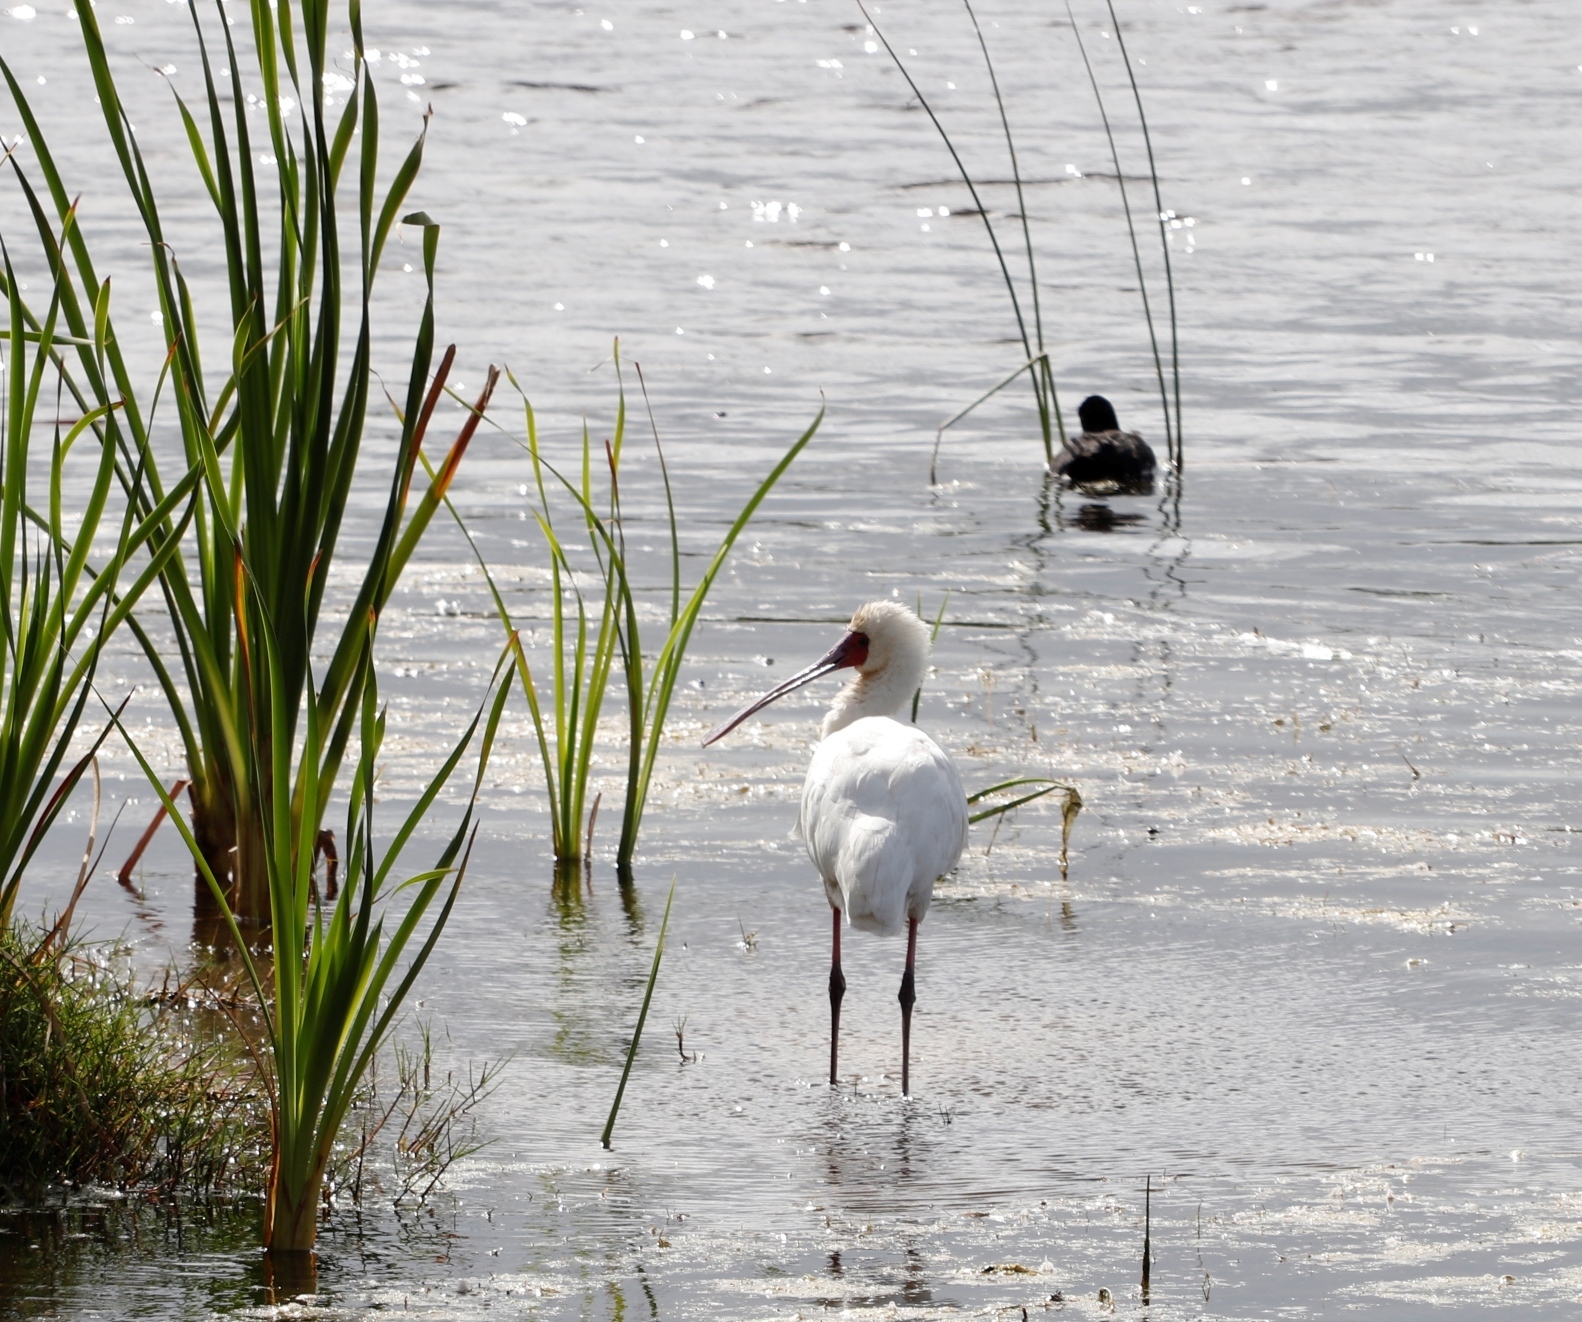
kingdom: Animalia
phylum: Chordata
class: Aves
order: Pelecaniformes
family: Threskiornithidae
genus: Platalea
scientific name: Platalea alba
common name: African spoonbill
